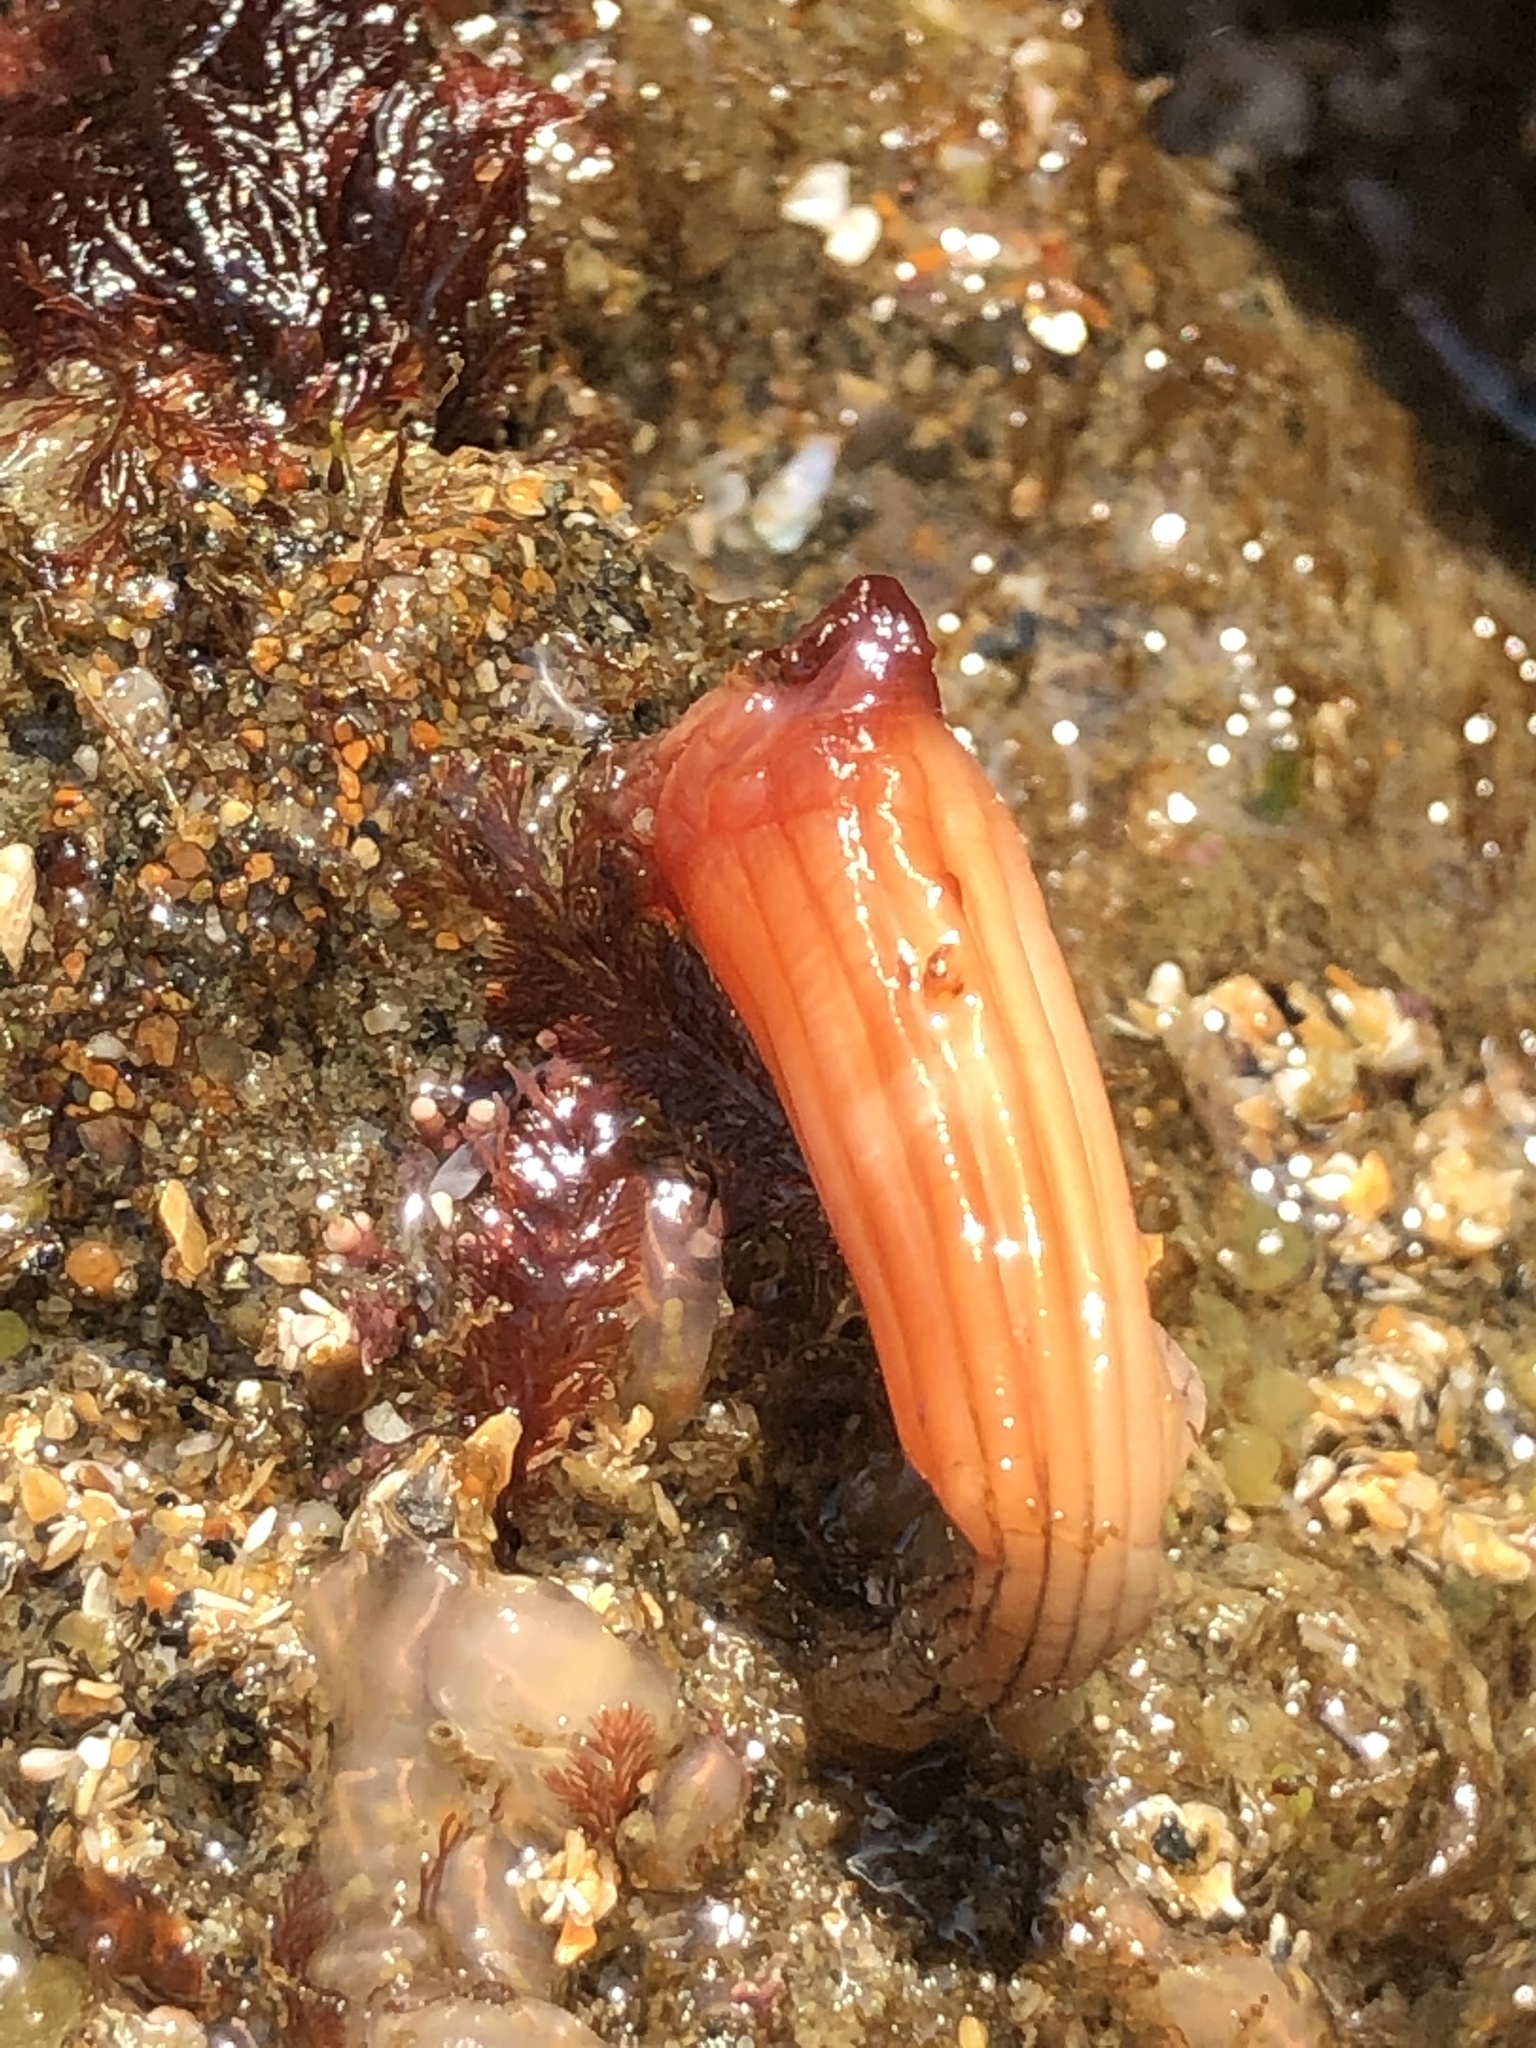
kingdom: Animalia
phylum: Chordata
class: Ascidiacea
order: Stolidobranchia
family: Styelidae
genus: Styela
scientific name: Styela montereyensis
